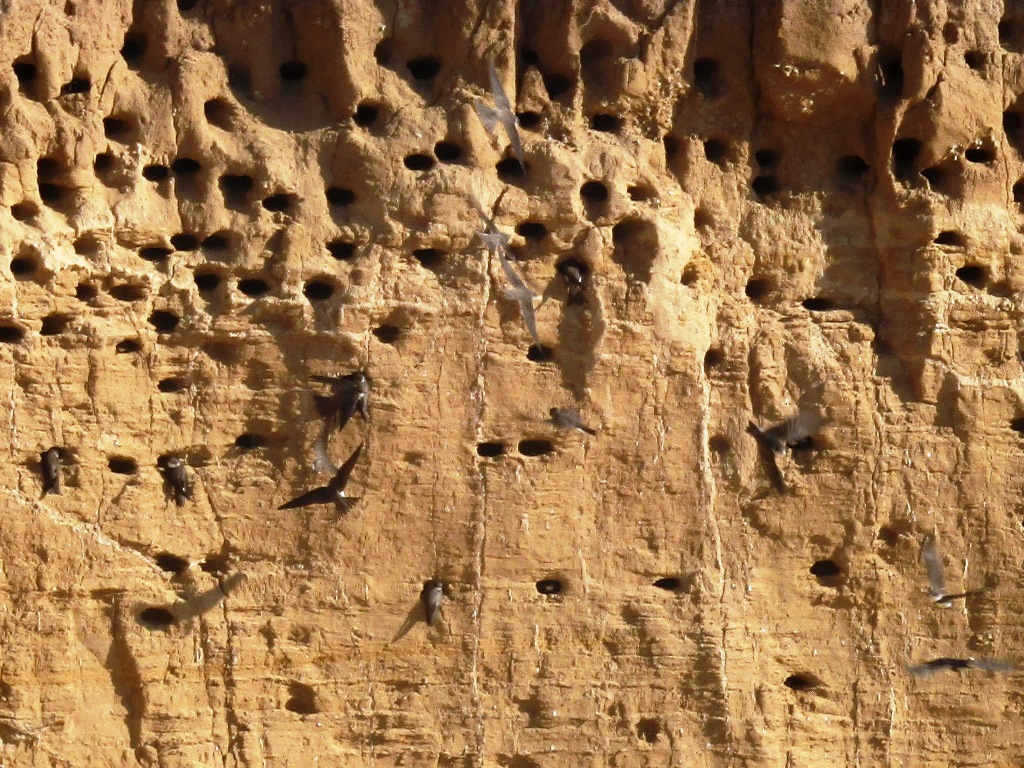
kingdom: Animalia
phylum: Chordata
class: Aves
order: Passeriformes
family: Hirundinidae
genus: Riparia
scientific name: Riparia riparia
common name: Sand martin
